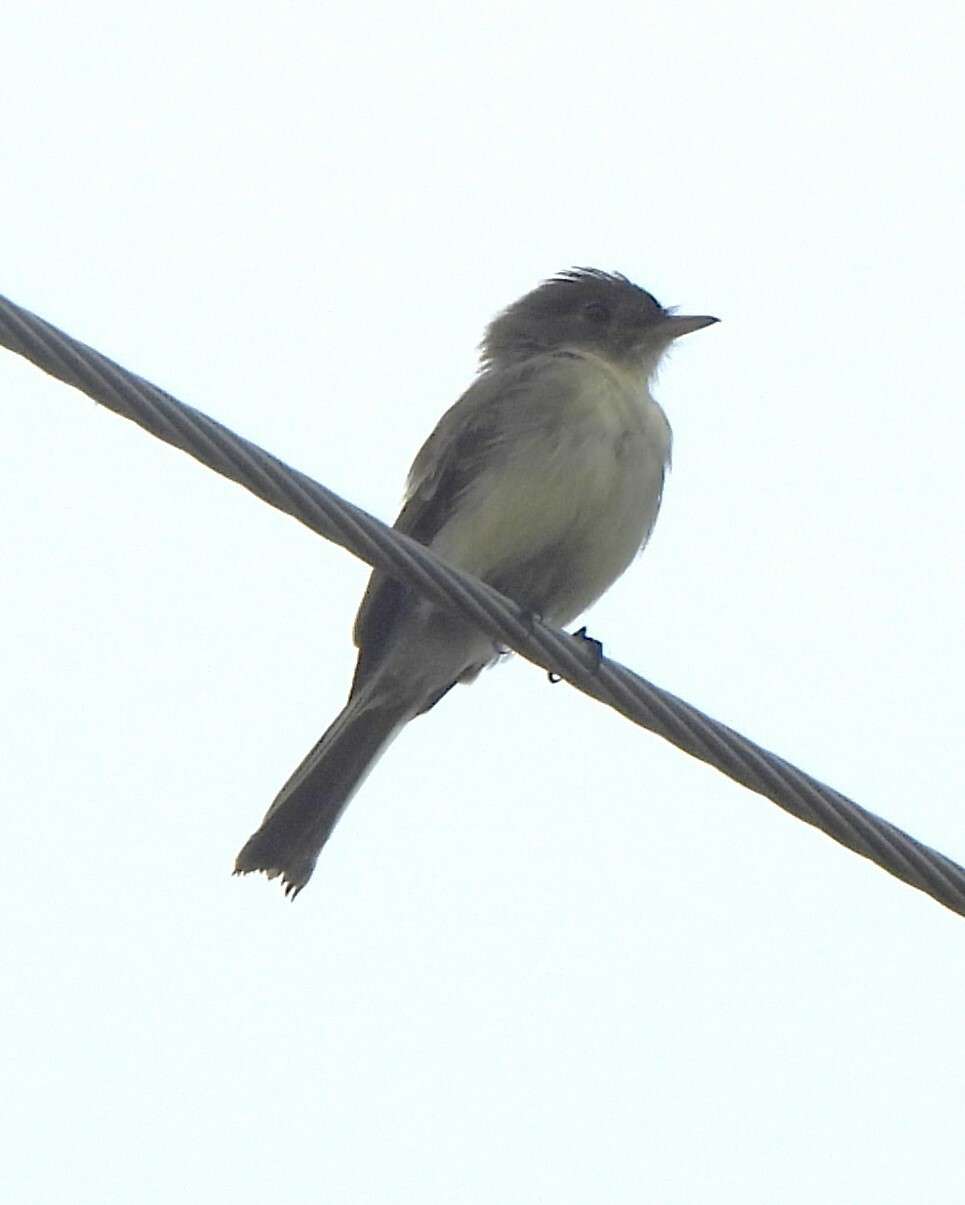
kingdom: Animalia
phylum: Chordata
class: Aves
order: Passeriformes
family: Tyrannidae
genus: Sayornis
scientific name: Sayornis phoebe
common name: Eastern phoebe
